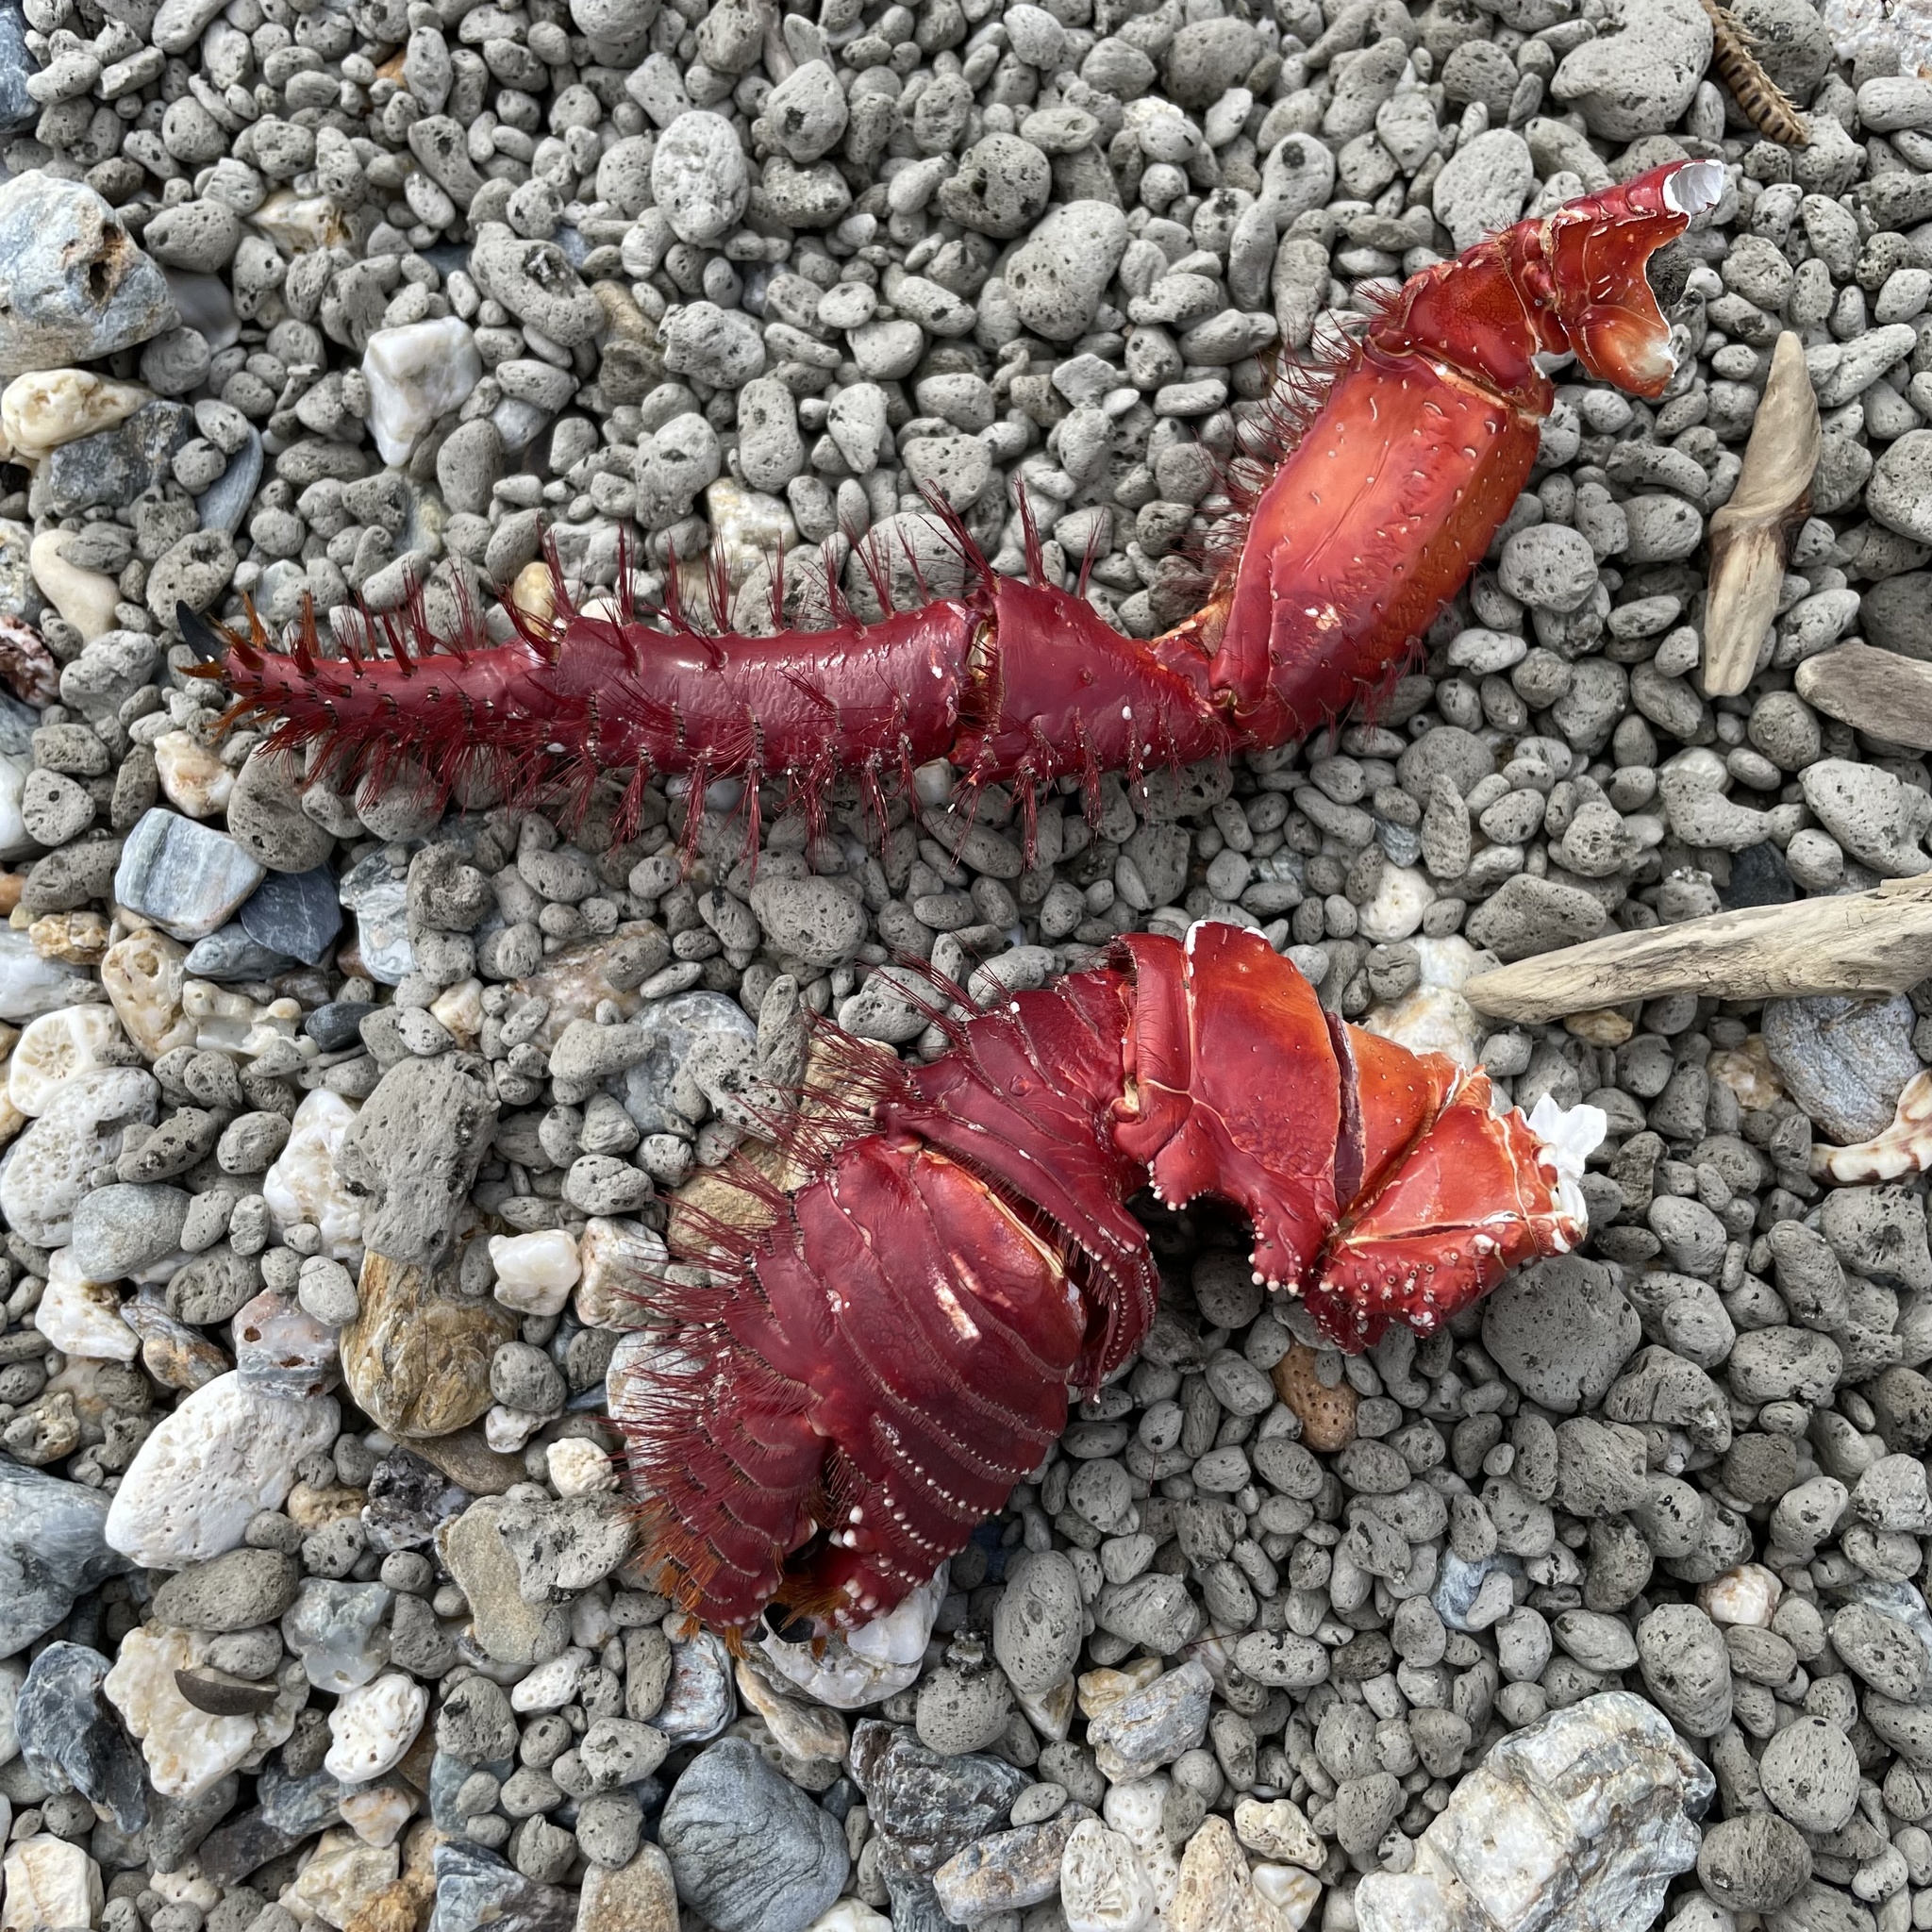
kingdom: Animalia
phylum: Arthropoda
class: Malacostraca
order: Decapoda
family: Diogenidae
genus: Aniculus
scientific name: Aniculus sibogae
